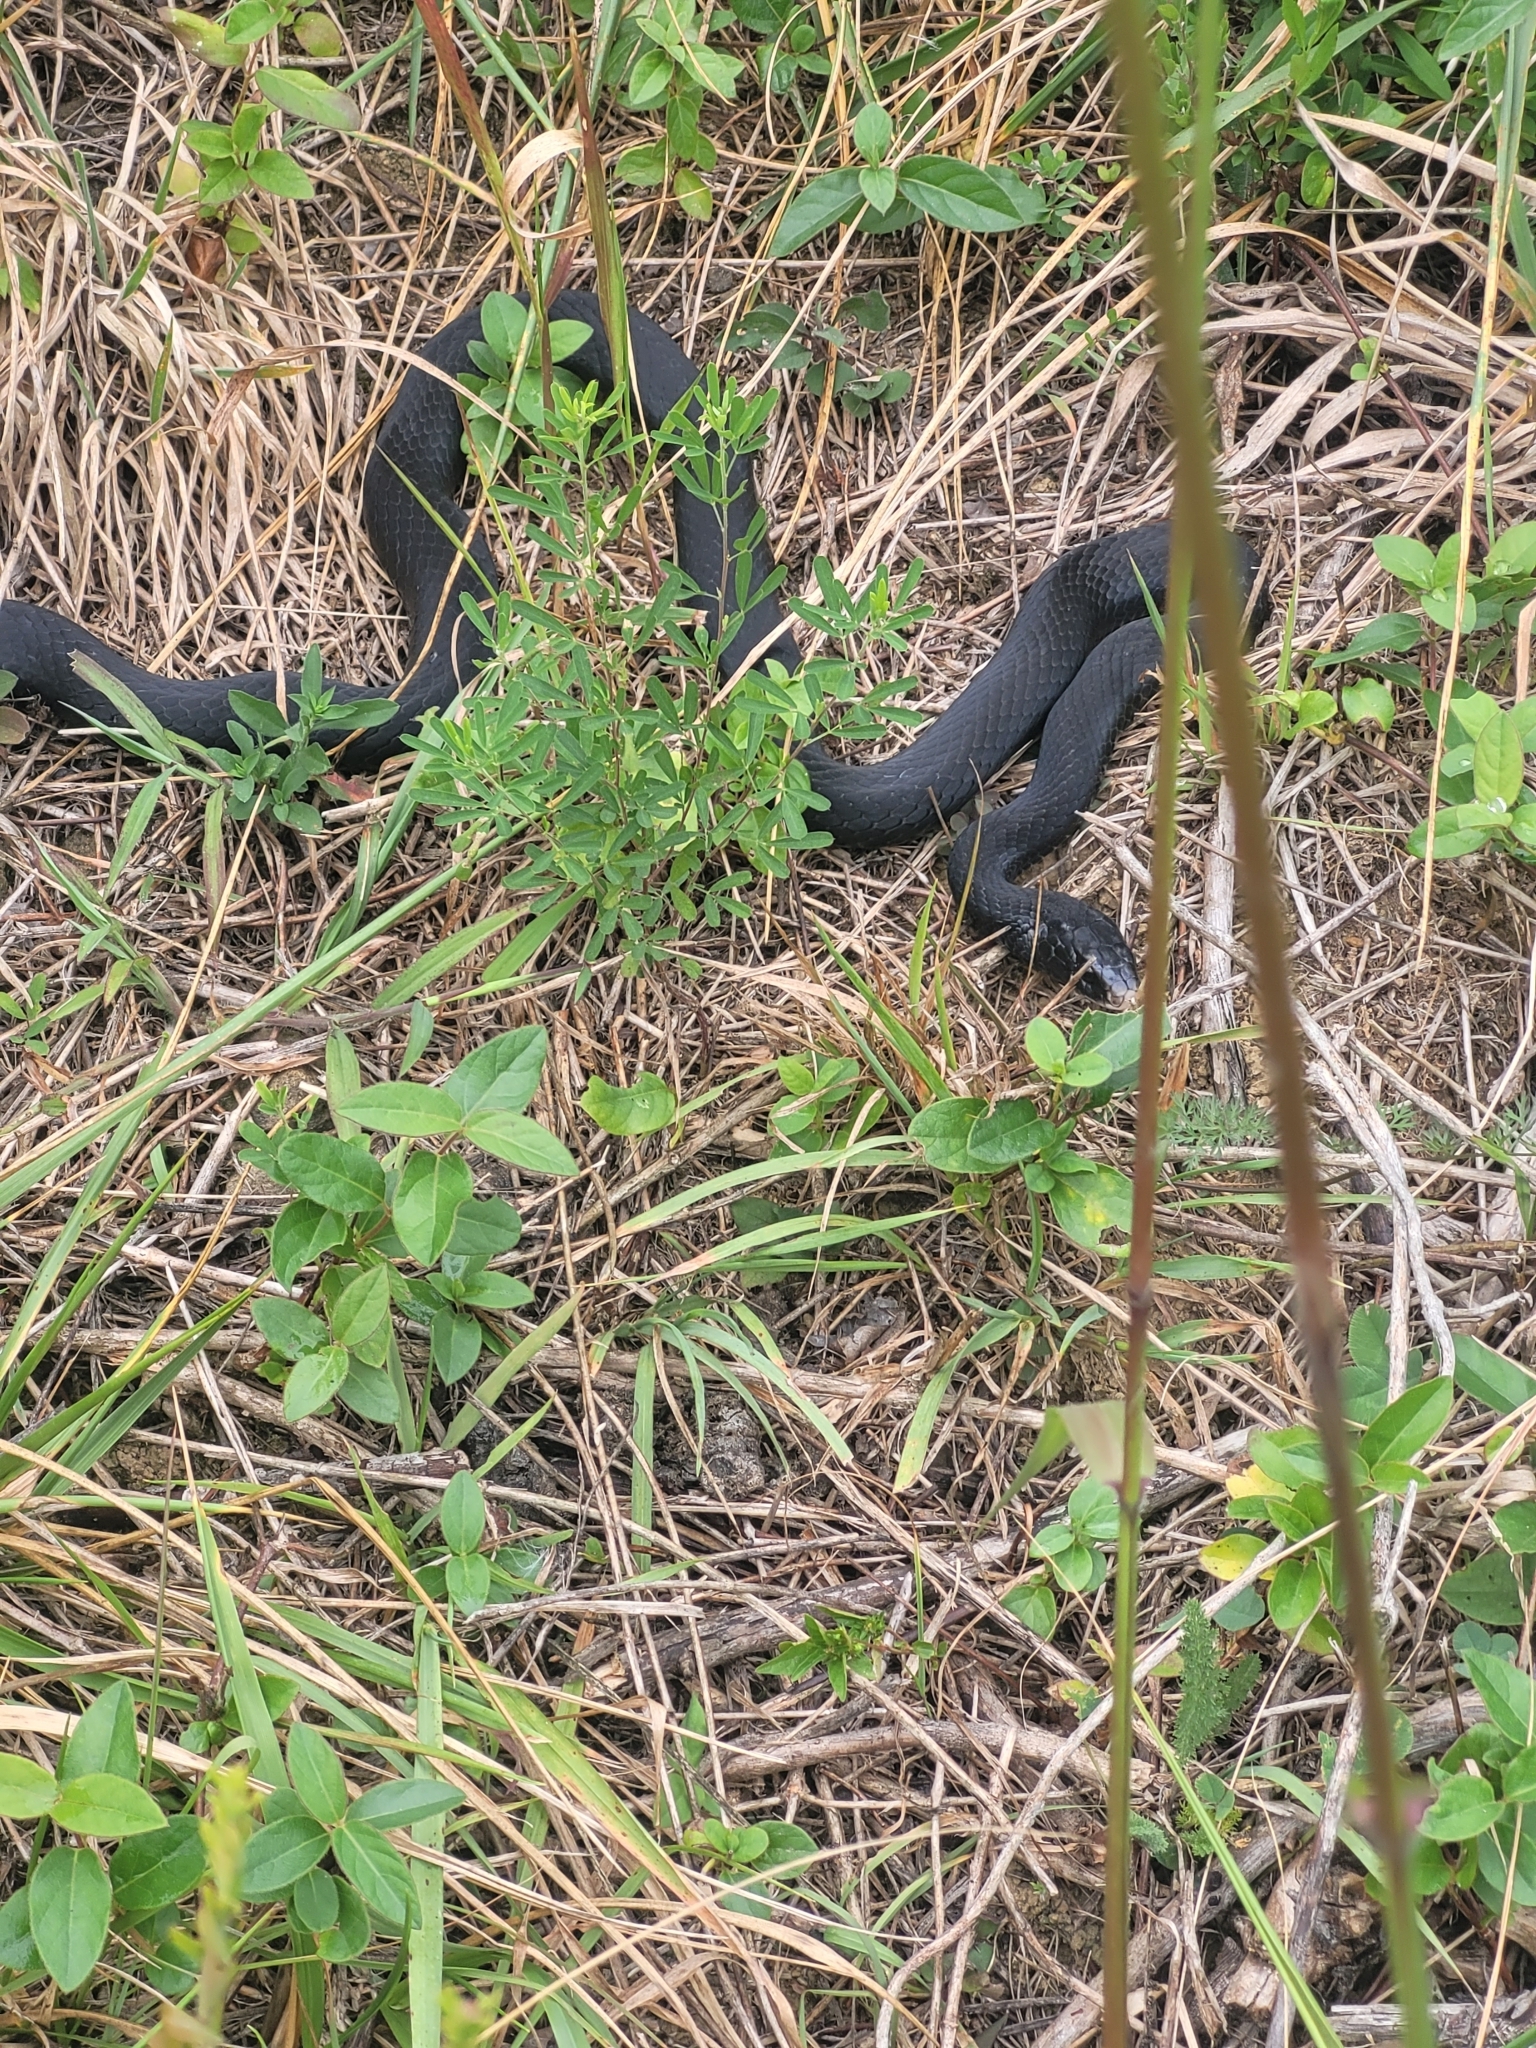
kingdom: Animalia
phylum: Chordata
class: Squamata
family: Colubridae
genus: Coluber
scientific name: Coluber constrictor
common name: Eastern racer
